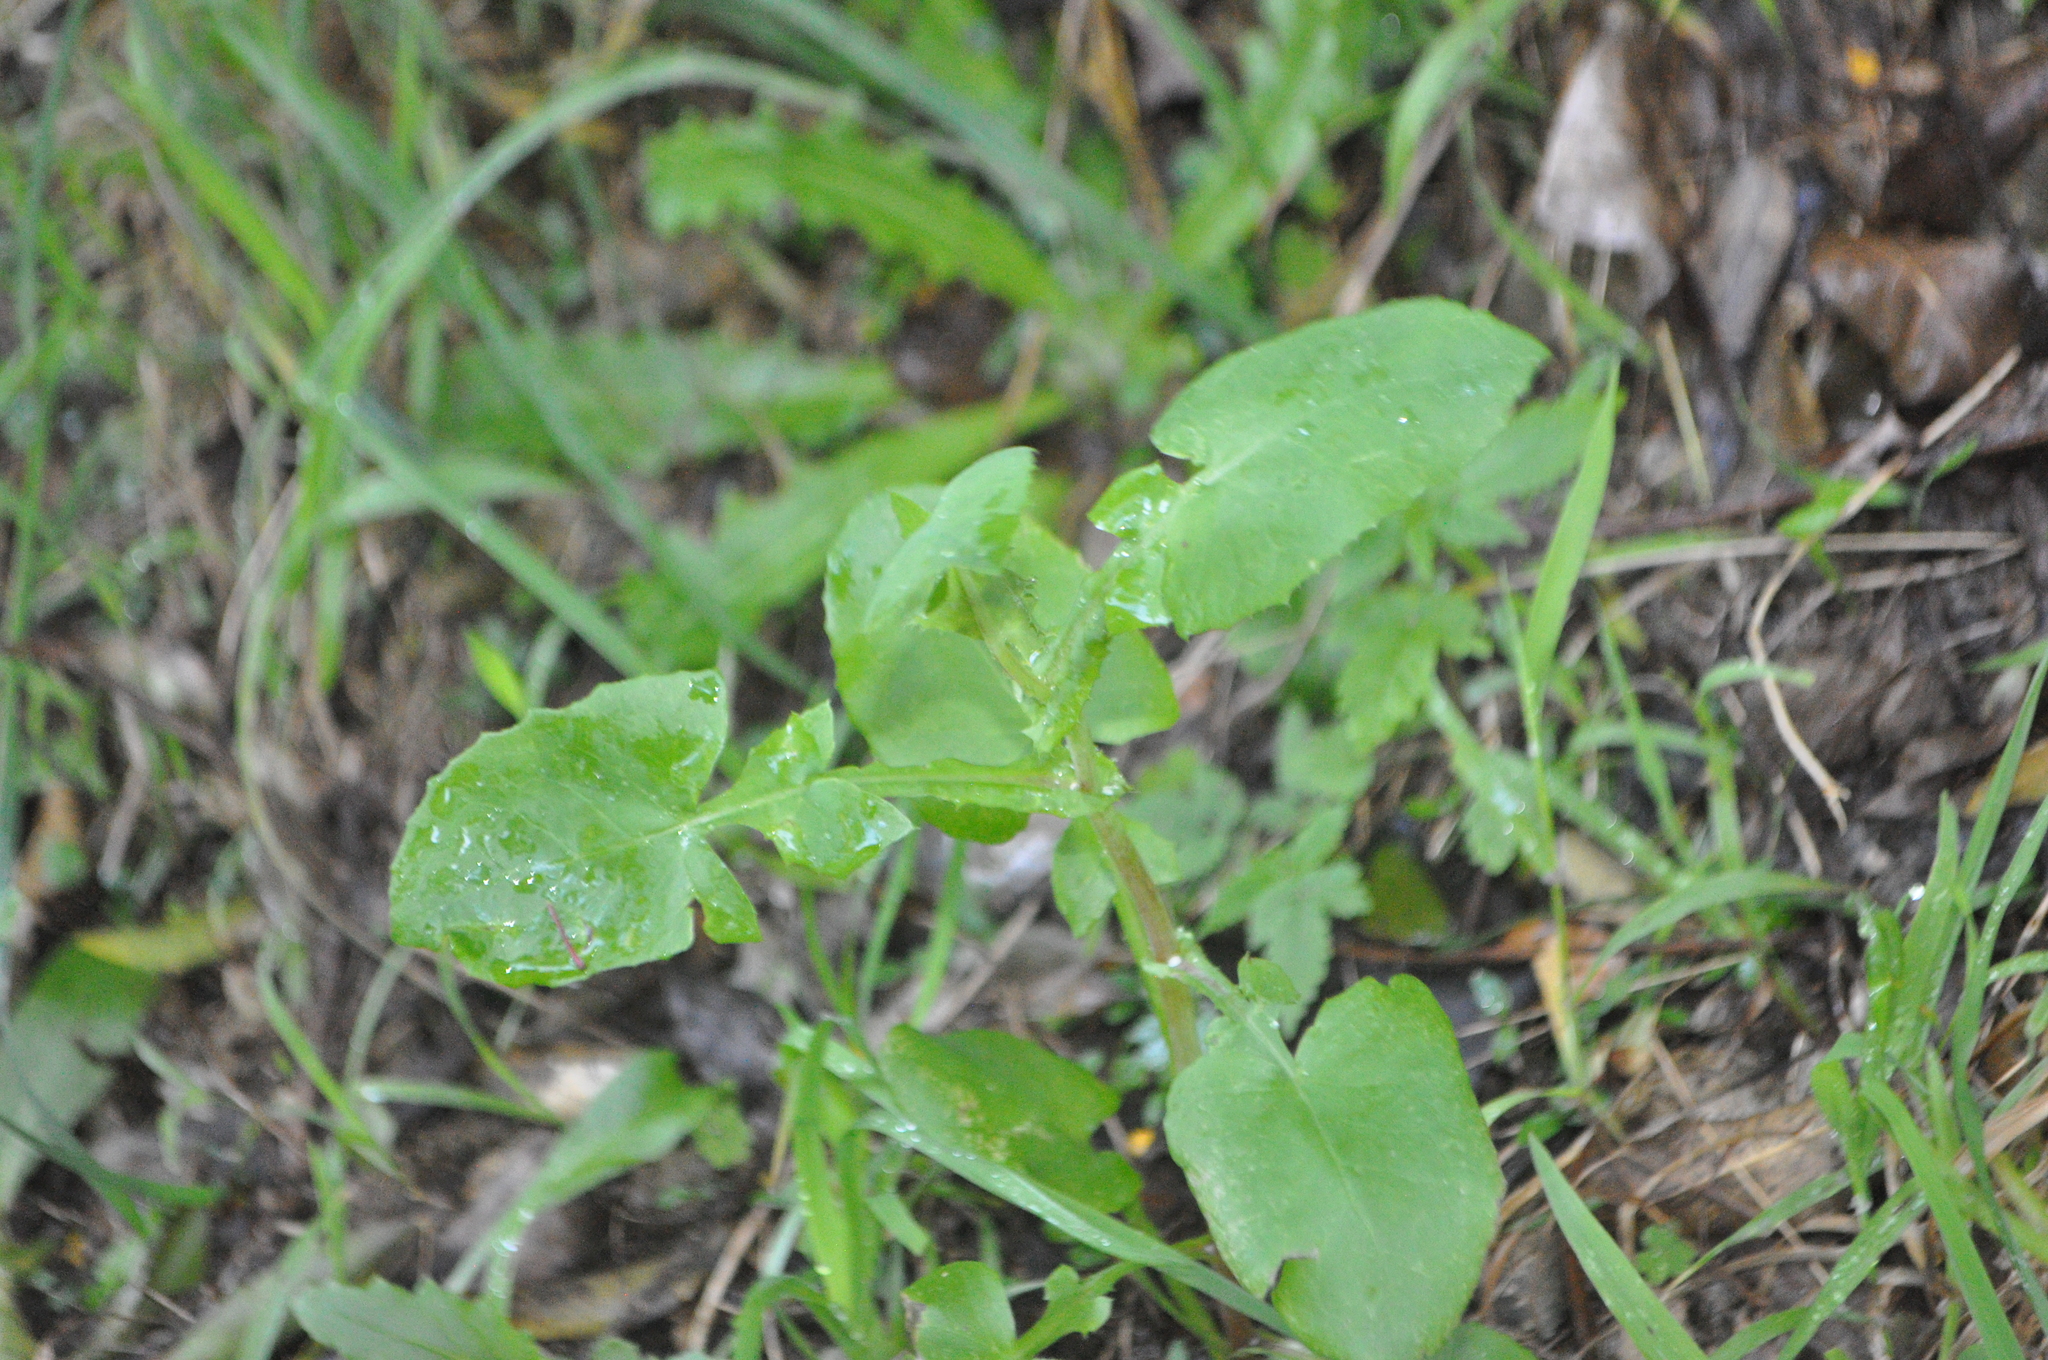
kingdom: Plantae
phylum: Tracheophyta
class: Magnoliopsida
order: Asterales
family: Asteraceae
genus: Sonchus
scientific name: Sonchus oleraceus
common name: Common sowthistle
